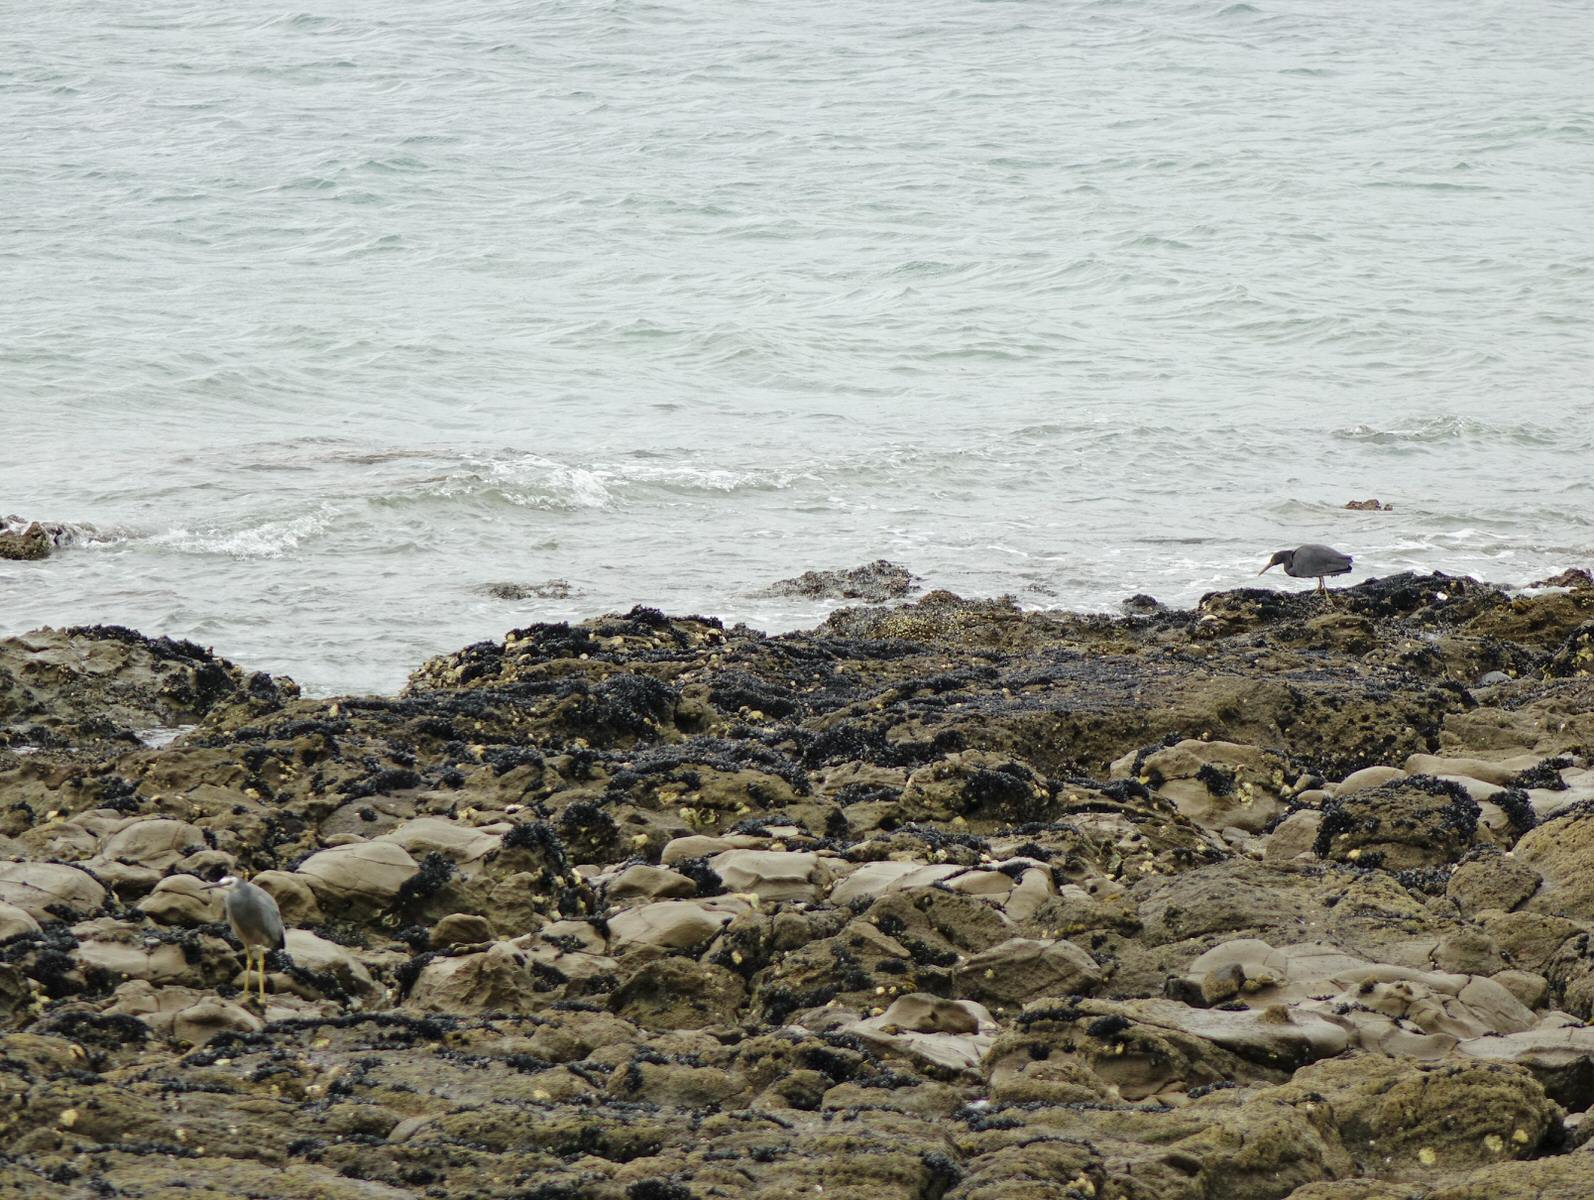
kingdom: Animalia
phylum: Chordata
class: Aves
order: Pelecaniformes
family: Ardeidae
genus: Egretta
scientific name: Egretta sacra
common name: Pacific reef heron
